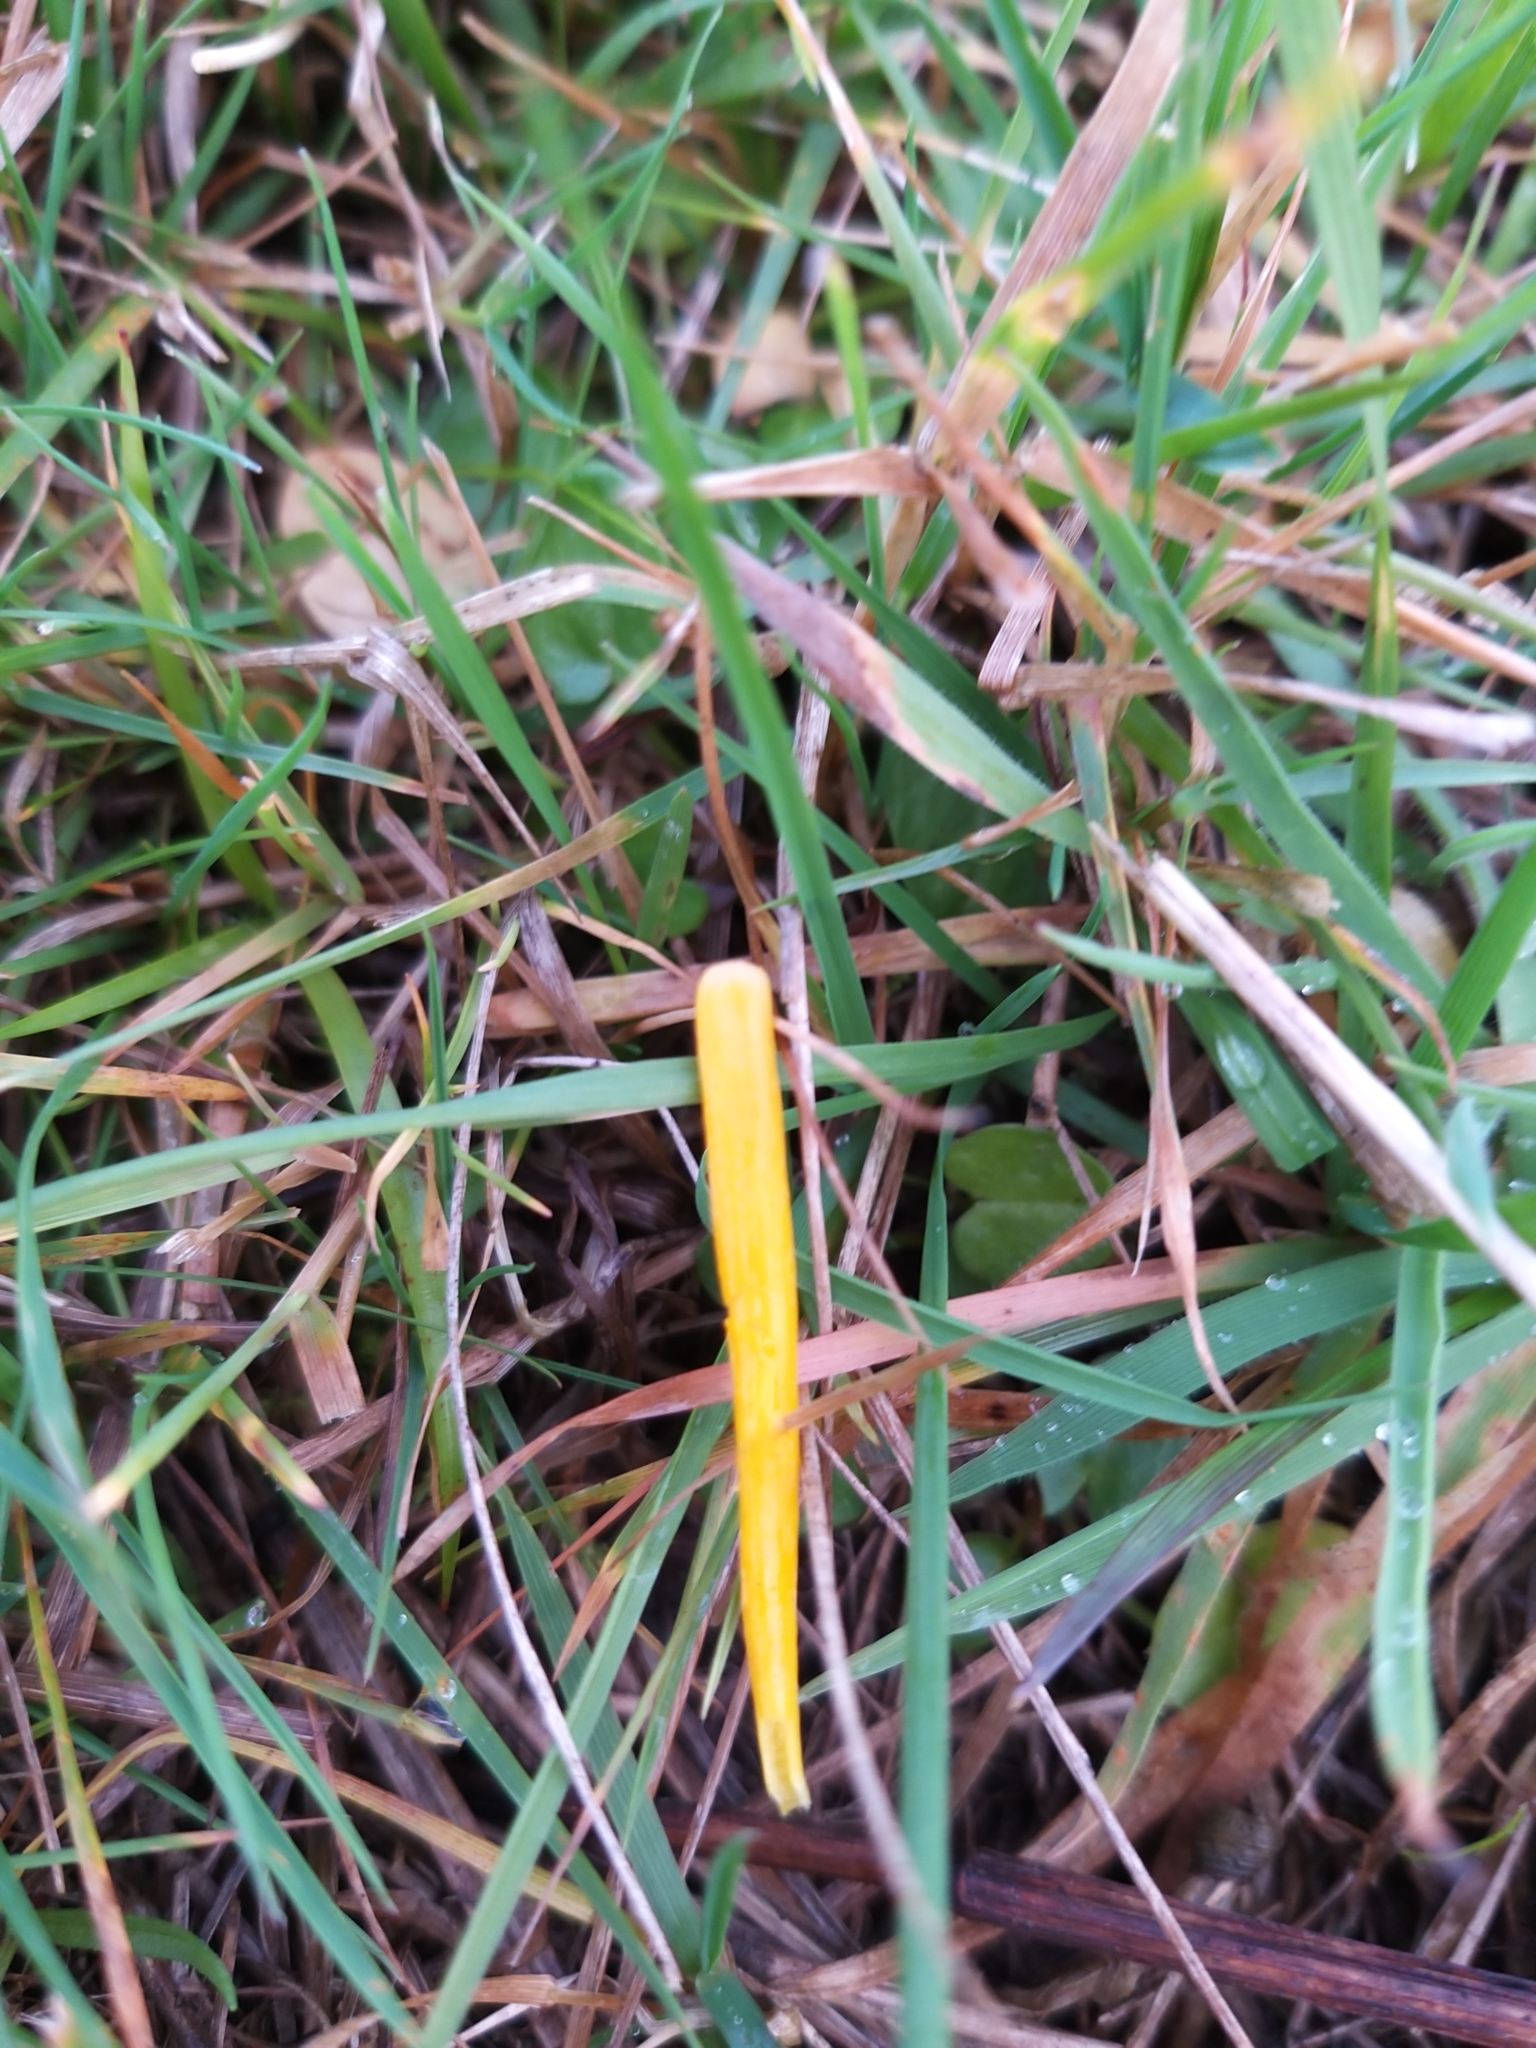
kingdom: Fungi
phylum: Basidiomycota
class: Agaricomycetes
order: Agaricales
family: Clavariaceae
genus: Clavulinopsis
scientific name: Clavulinopsis helvola
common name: Yellow club
